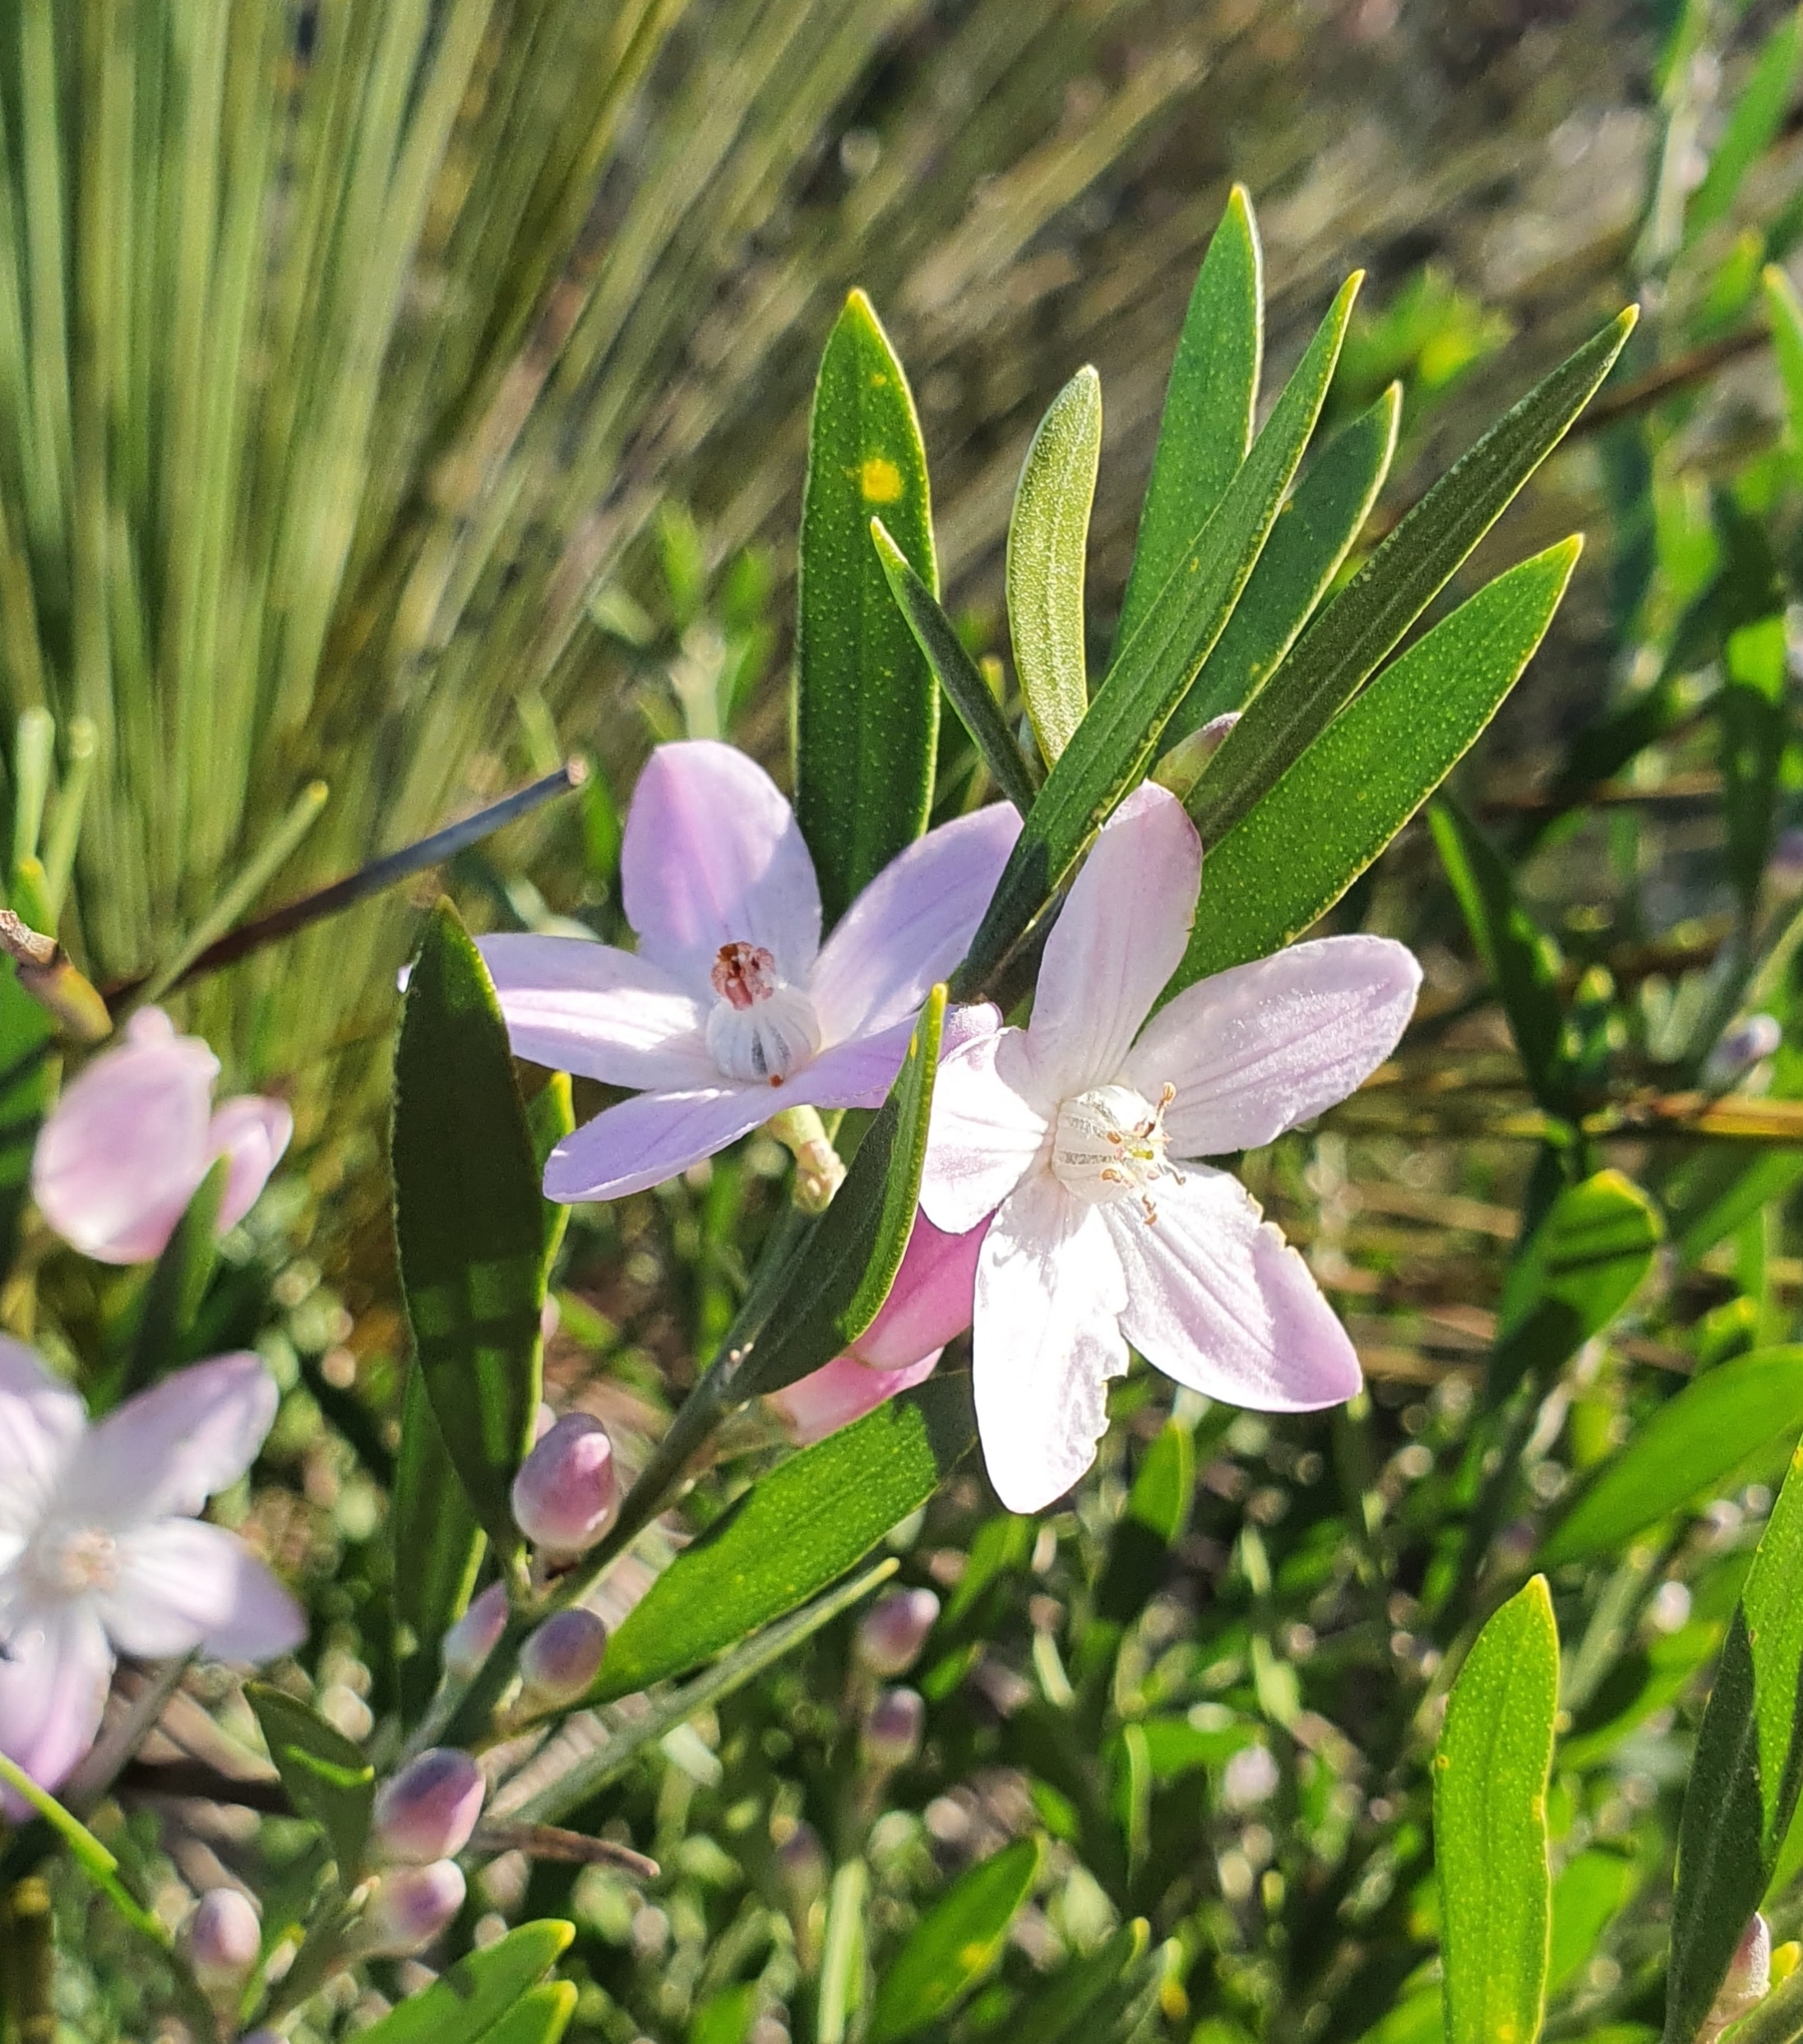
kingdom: Plantae
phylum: Tracheophyta
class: Magnoliopsida
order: Sapindales
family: Rutaceae
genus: Eriostemon
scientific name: Eriostemon australasius
